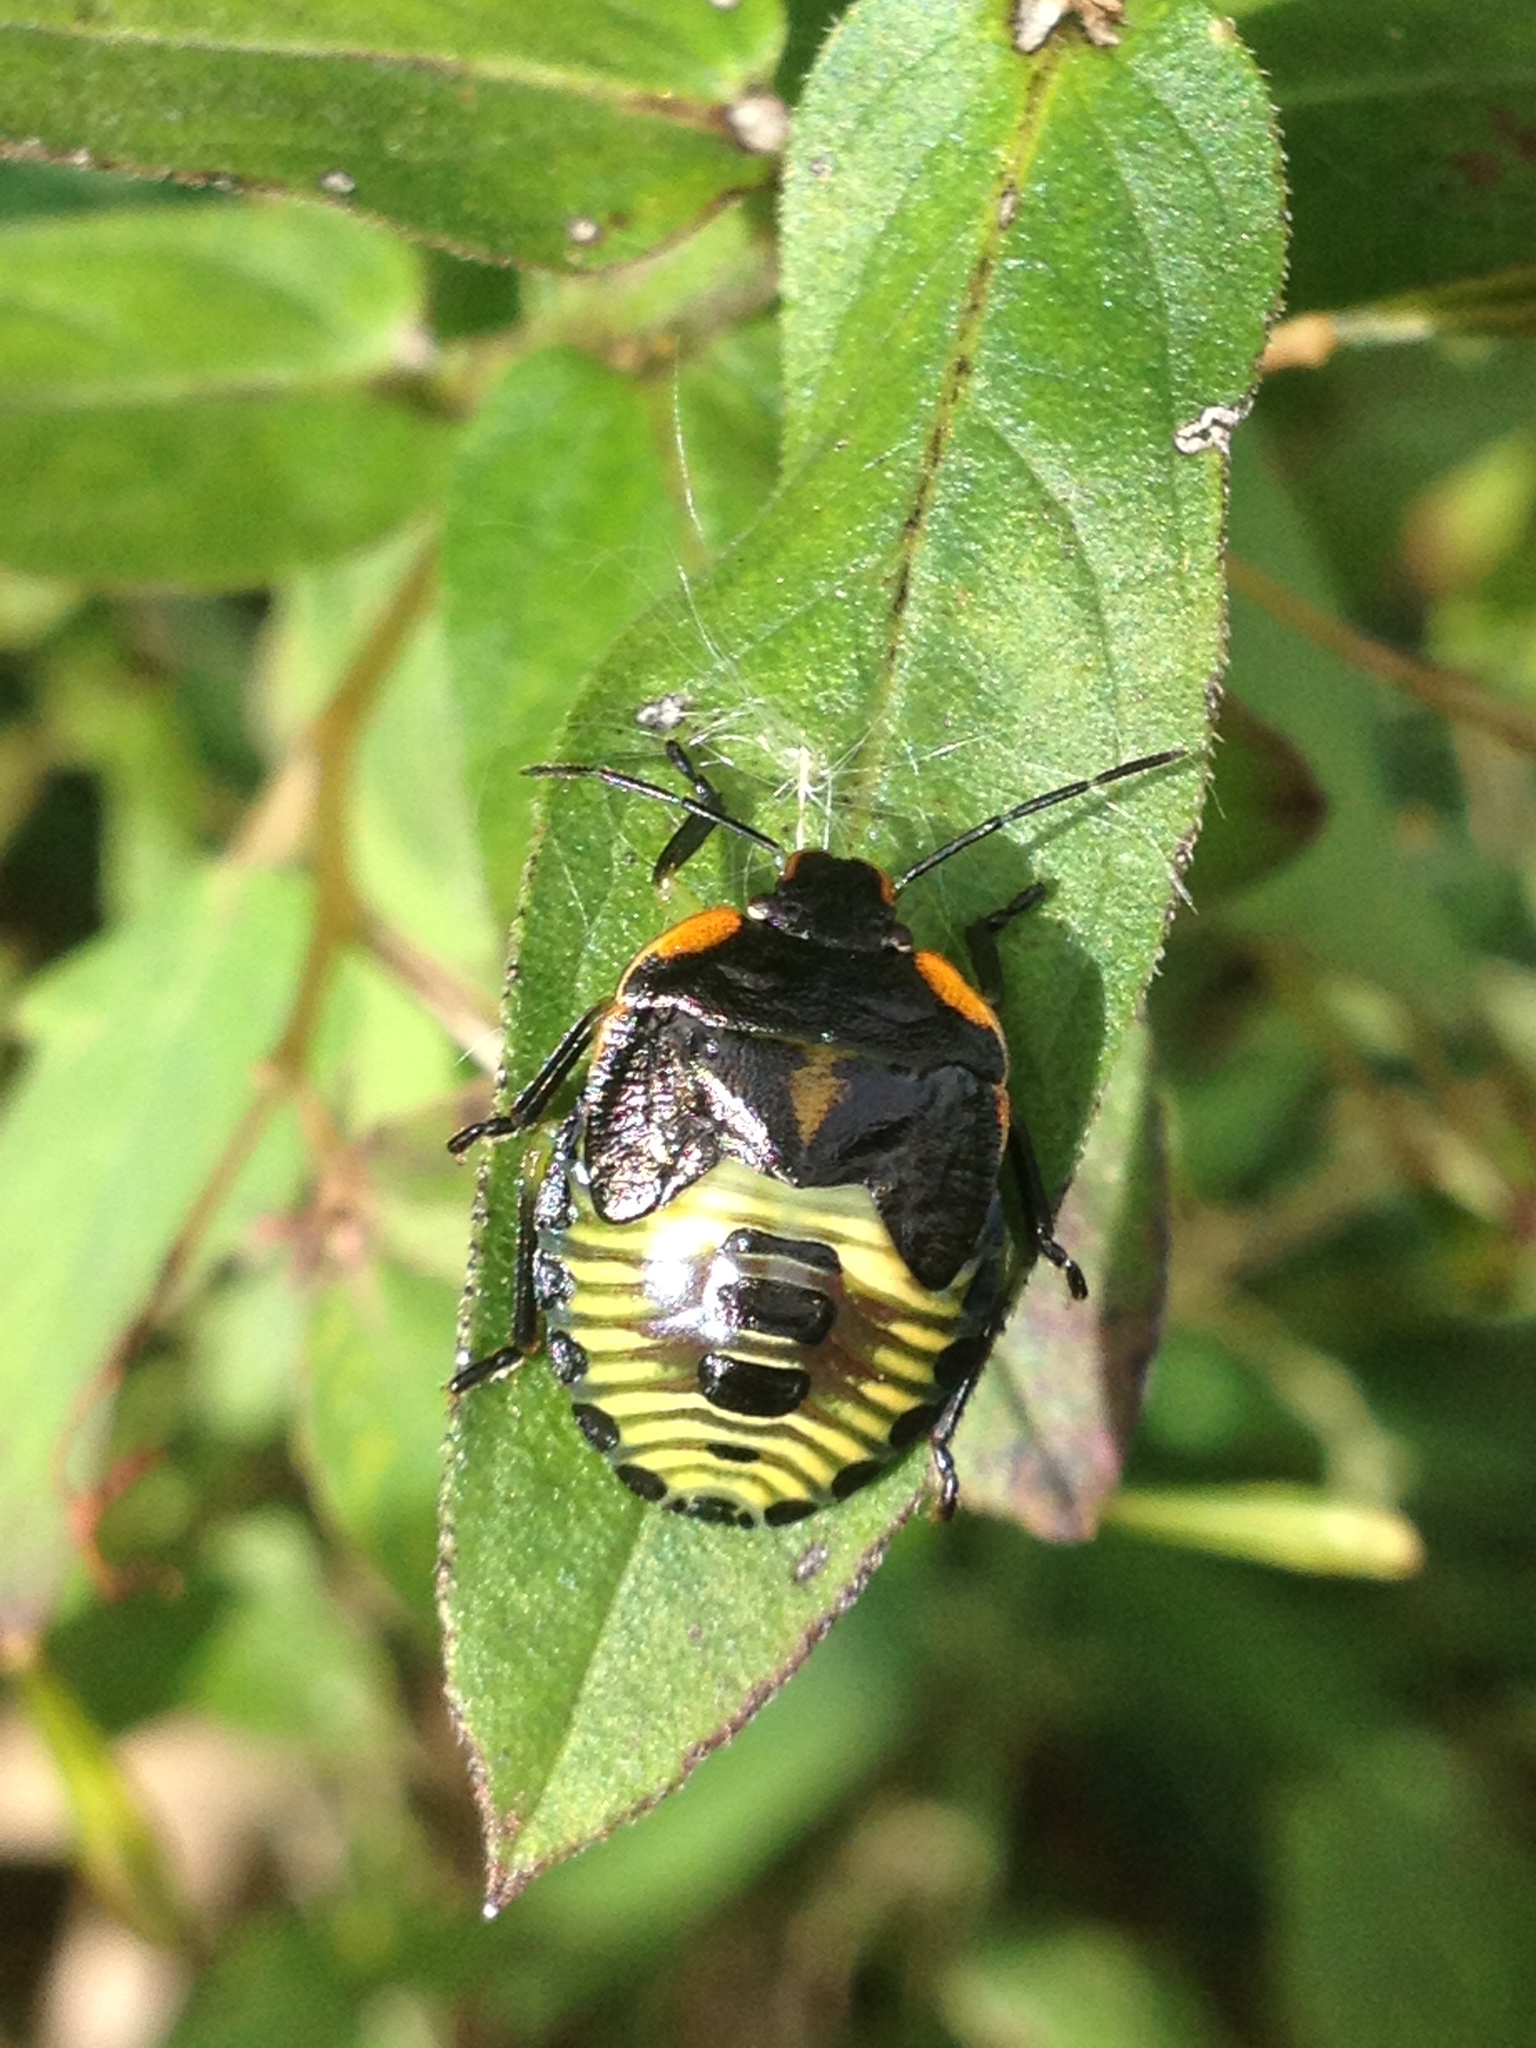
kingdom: Animalia
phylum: Arthropoda
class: Insecta
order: Hemiptera
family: Pentatomidae
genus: Chinavia
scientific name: Chinavia hilaris
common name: Green stink bug
